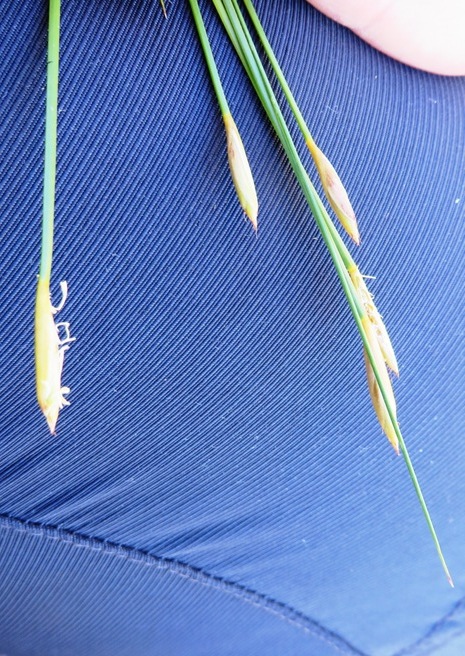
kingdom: Plantae
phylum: Tracheophyta
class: Liliopsida
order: Poales
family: Restionaceae
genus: Hypodiscus
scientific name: Hypodiscus willdenowia
